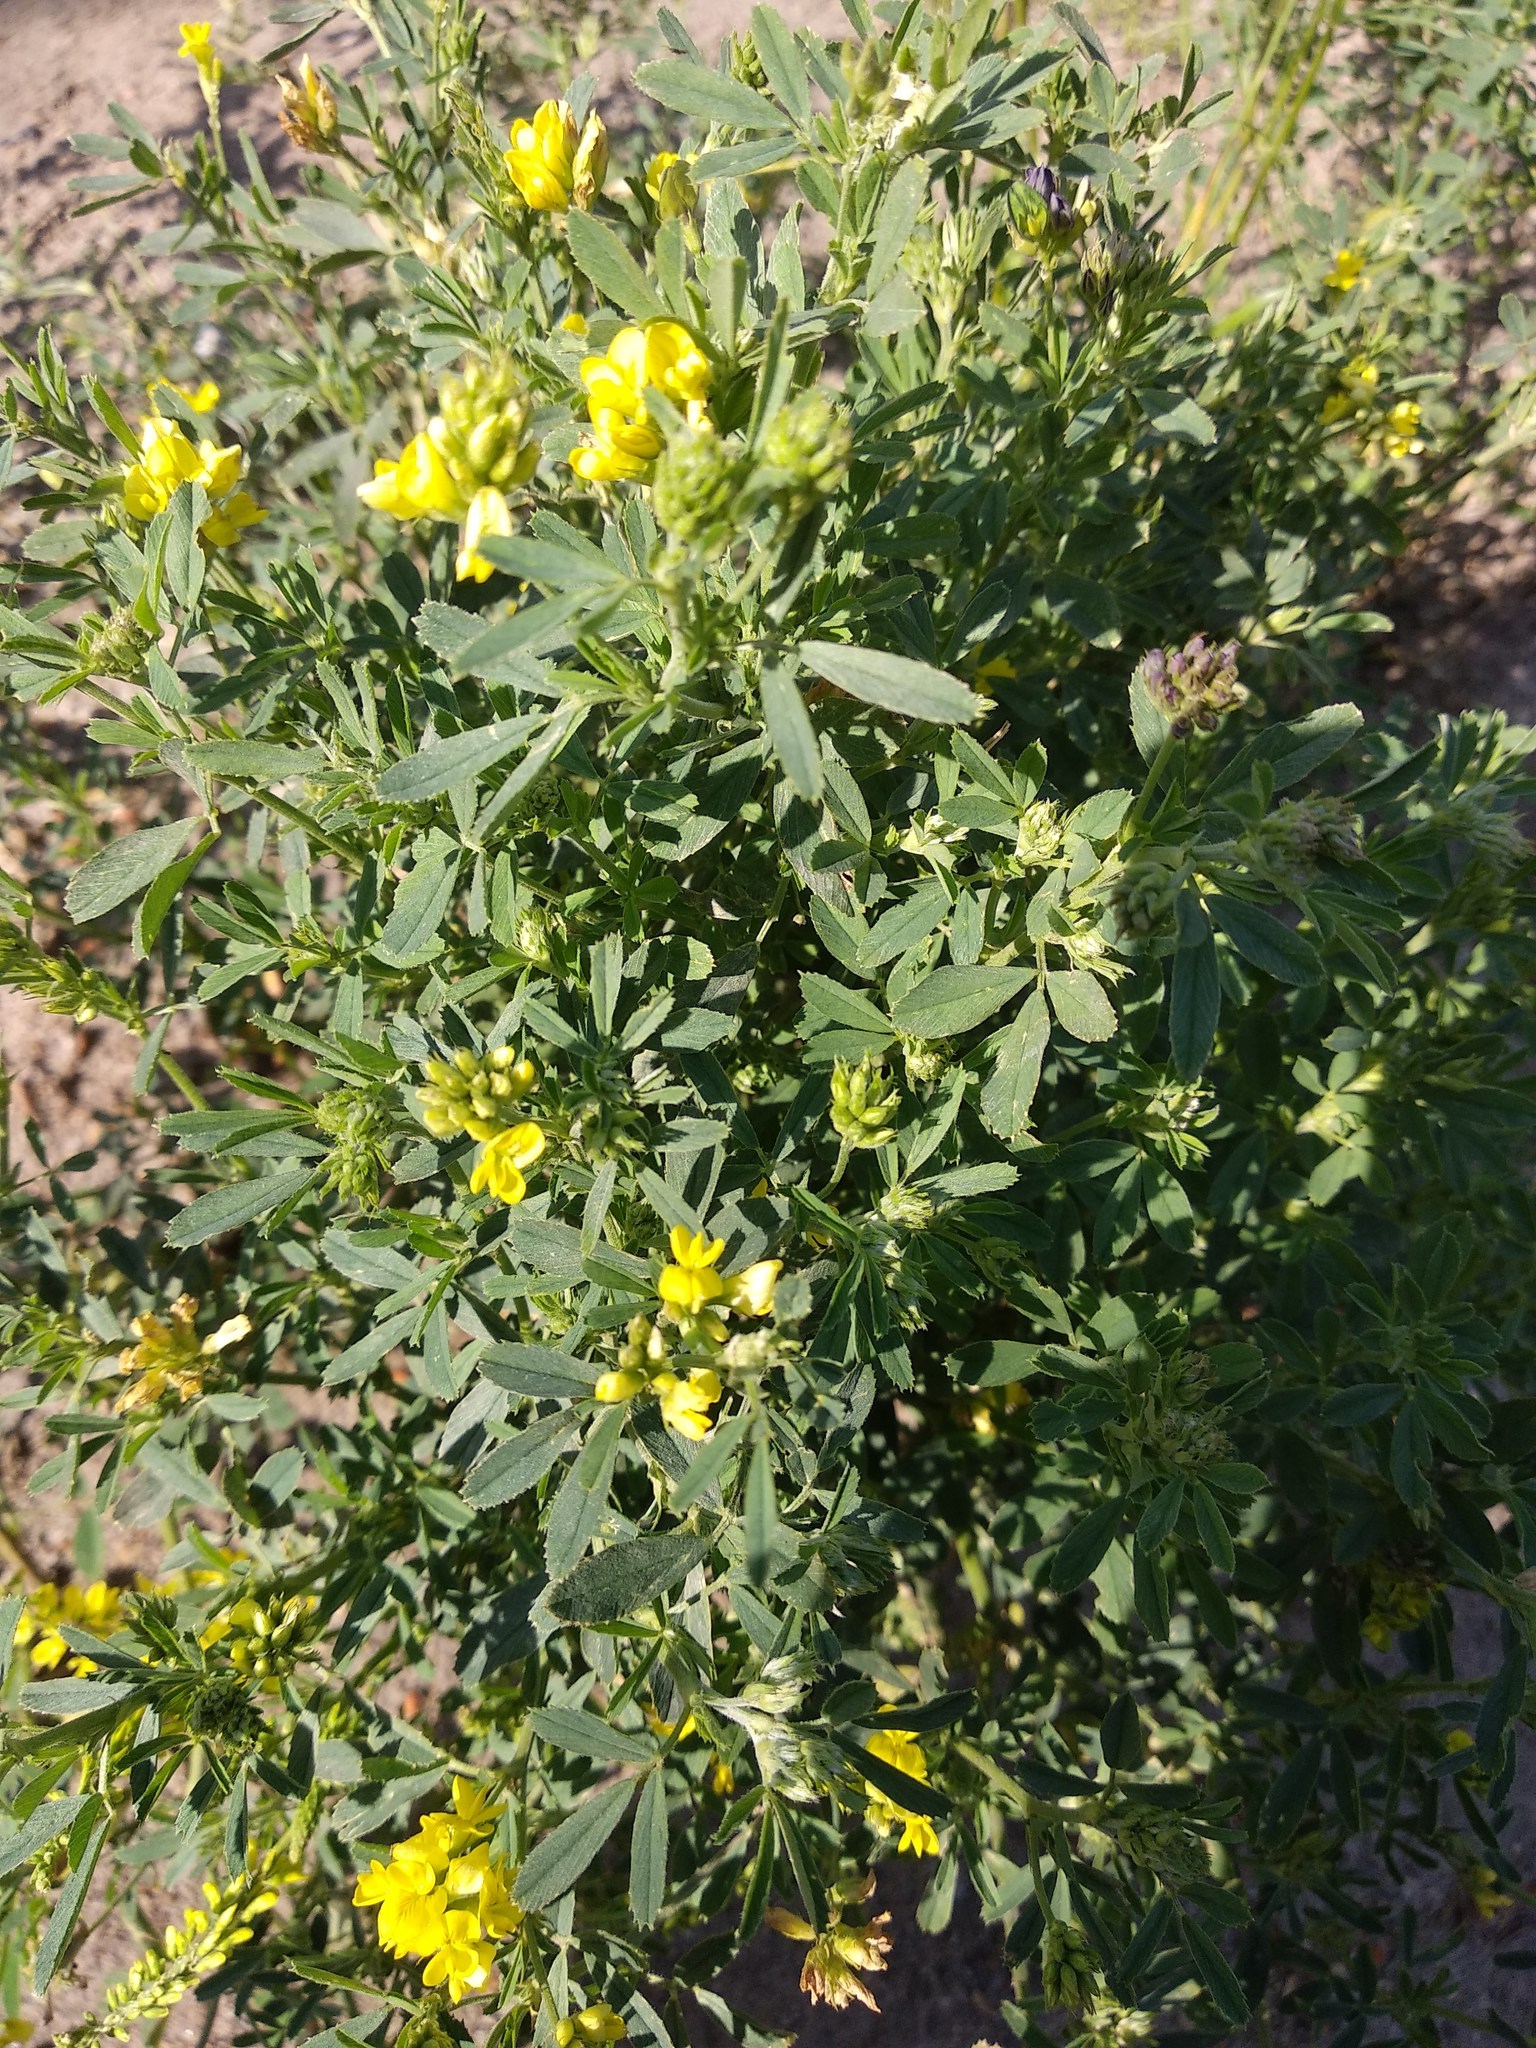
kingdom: Plantae
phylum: Tracheophyta
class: Magnoliopsida
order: Fabales
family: Fabaceae
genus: Medicago
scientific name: Medicago falcata
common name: Sickle medick
